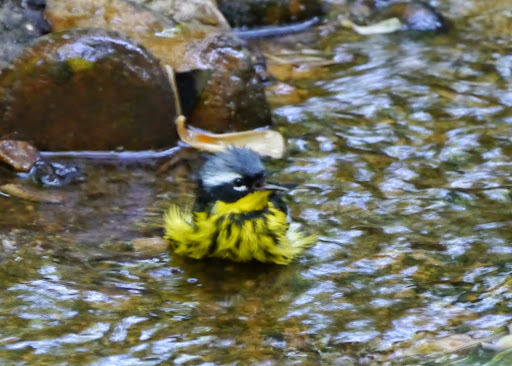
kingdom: Animalia
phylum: Chordata
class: Aves
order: Passeriformes
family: Parulidae
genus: Setophaga
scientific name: Setophaga magnolia
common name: Magnolia warbler
